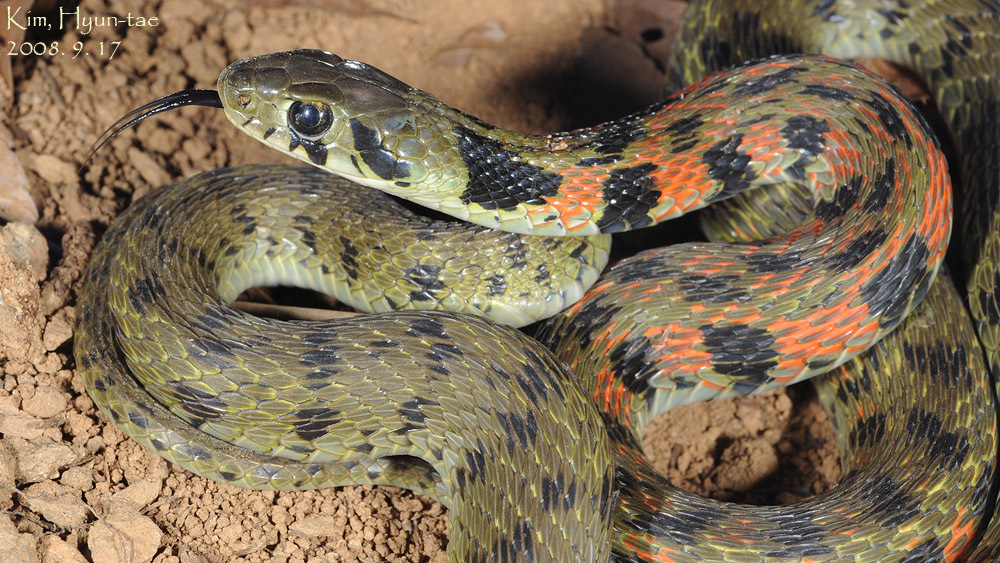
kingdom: Animalia
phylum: Chordata
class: Squamata
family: Colubridae
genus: Rhabdophis
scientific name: Rhabdophis tigrinus
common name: Tiger keelback
